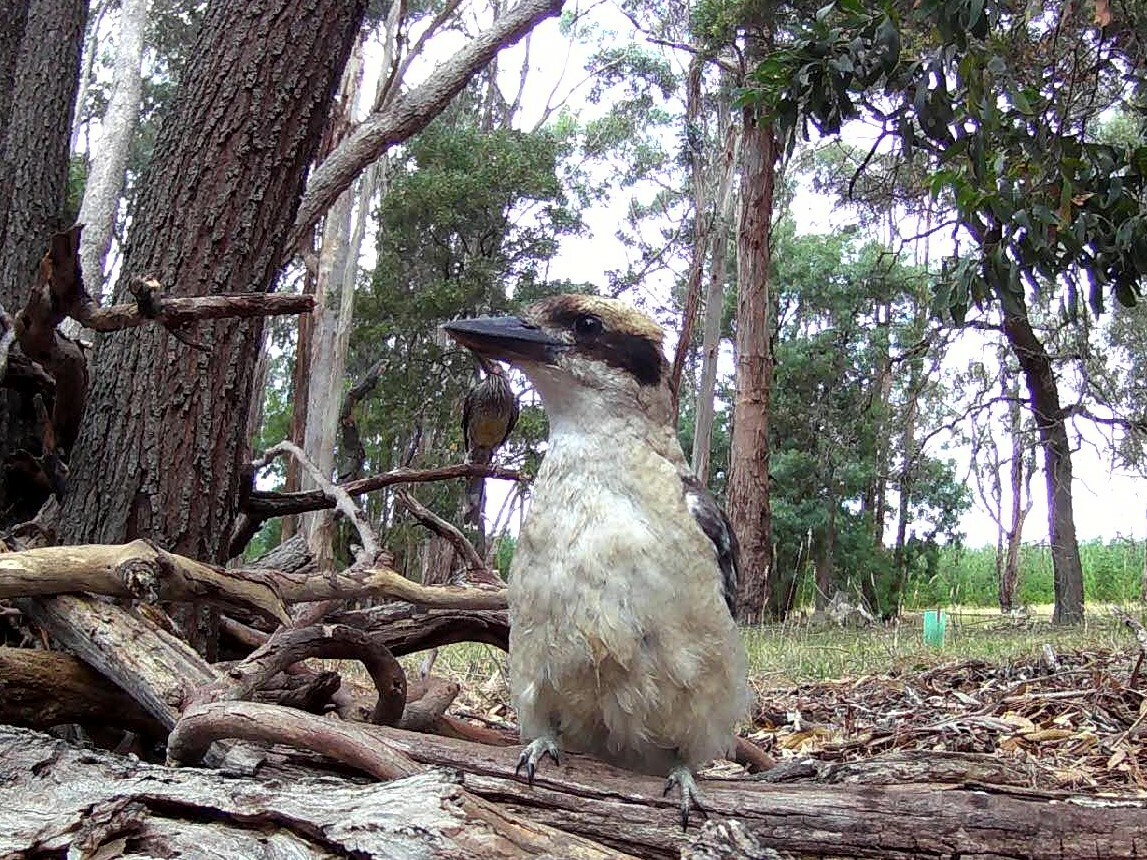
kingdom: Animalia
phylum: Chordata
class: Aves
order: Coraciiformes
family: Alcedinidae
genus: Dacelo
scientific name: Dacelo novaeguineae
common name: Laughing kookaburra
